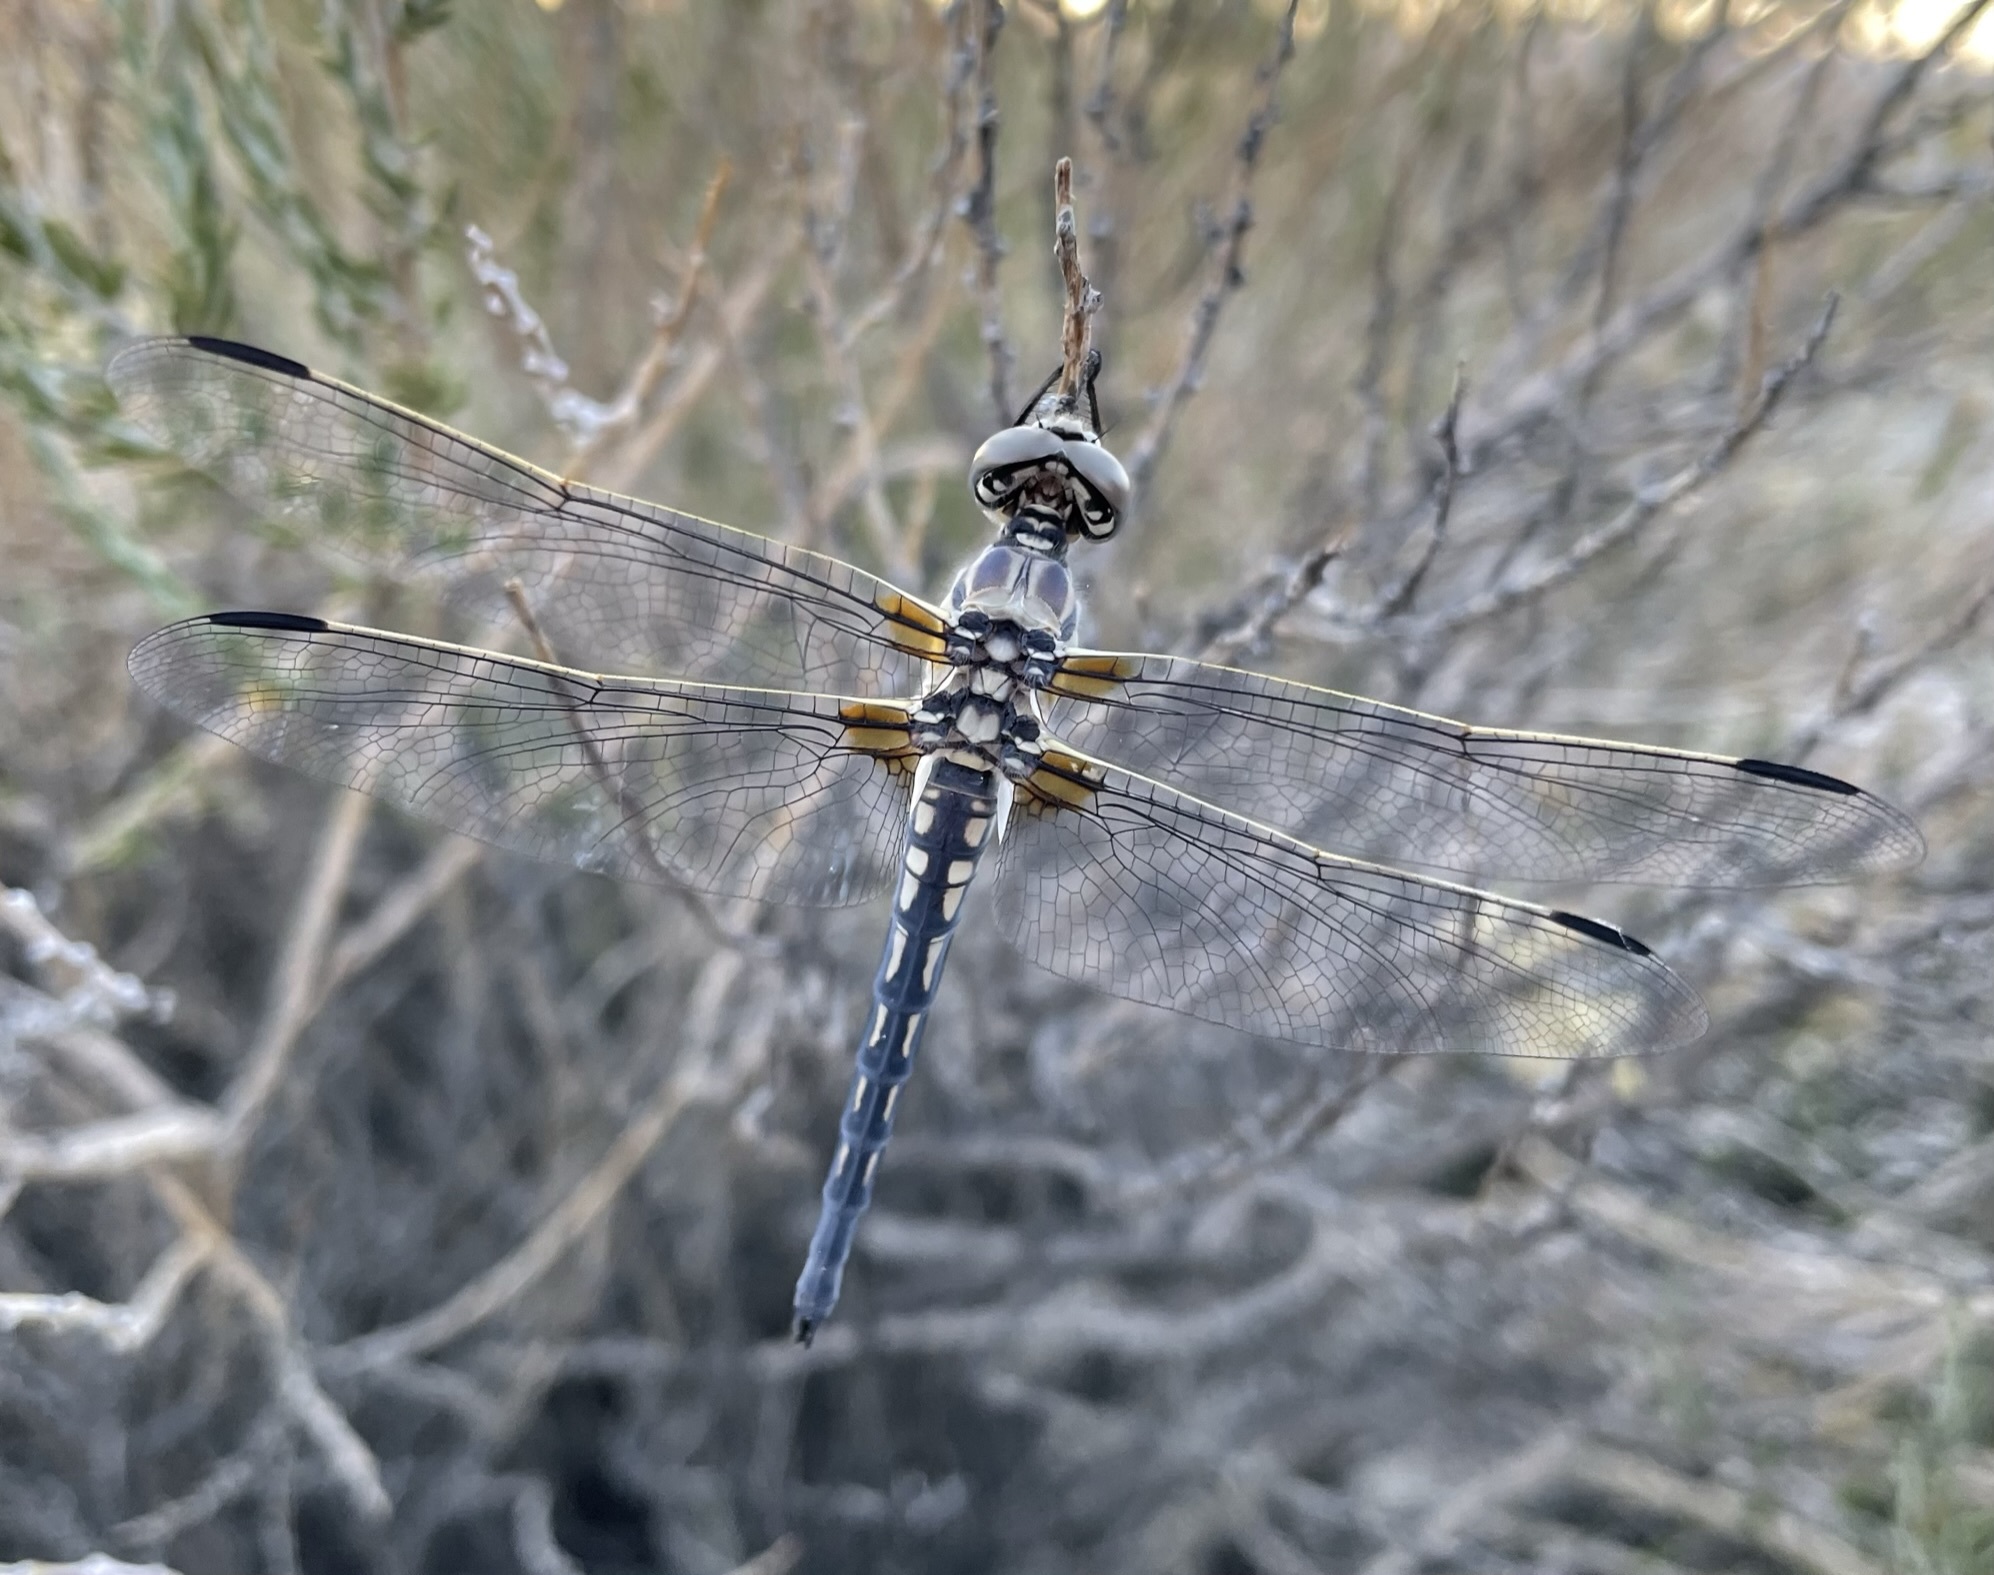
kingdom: Animalia
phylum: Arthropoda
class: Insecta
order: Odonata
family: Libellulidae
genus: Libellula
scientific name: Libellula composita
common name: Bleached skimmer
